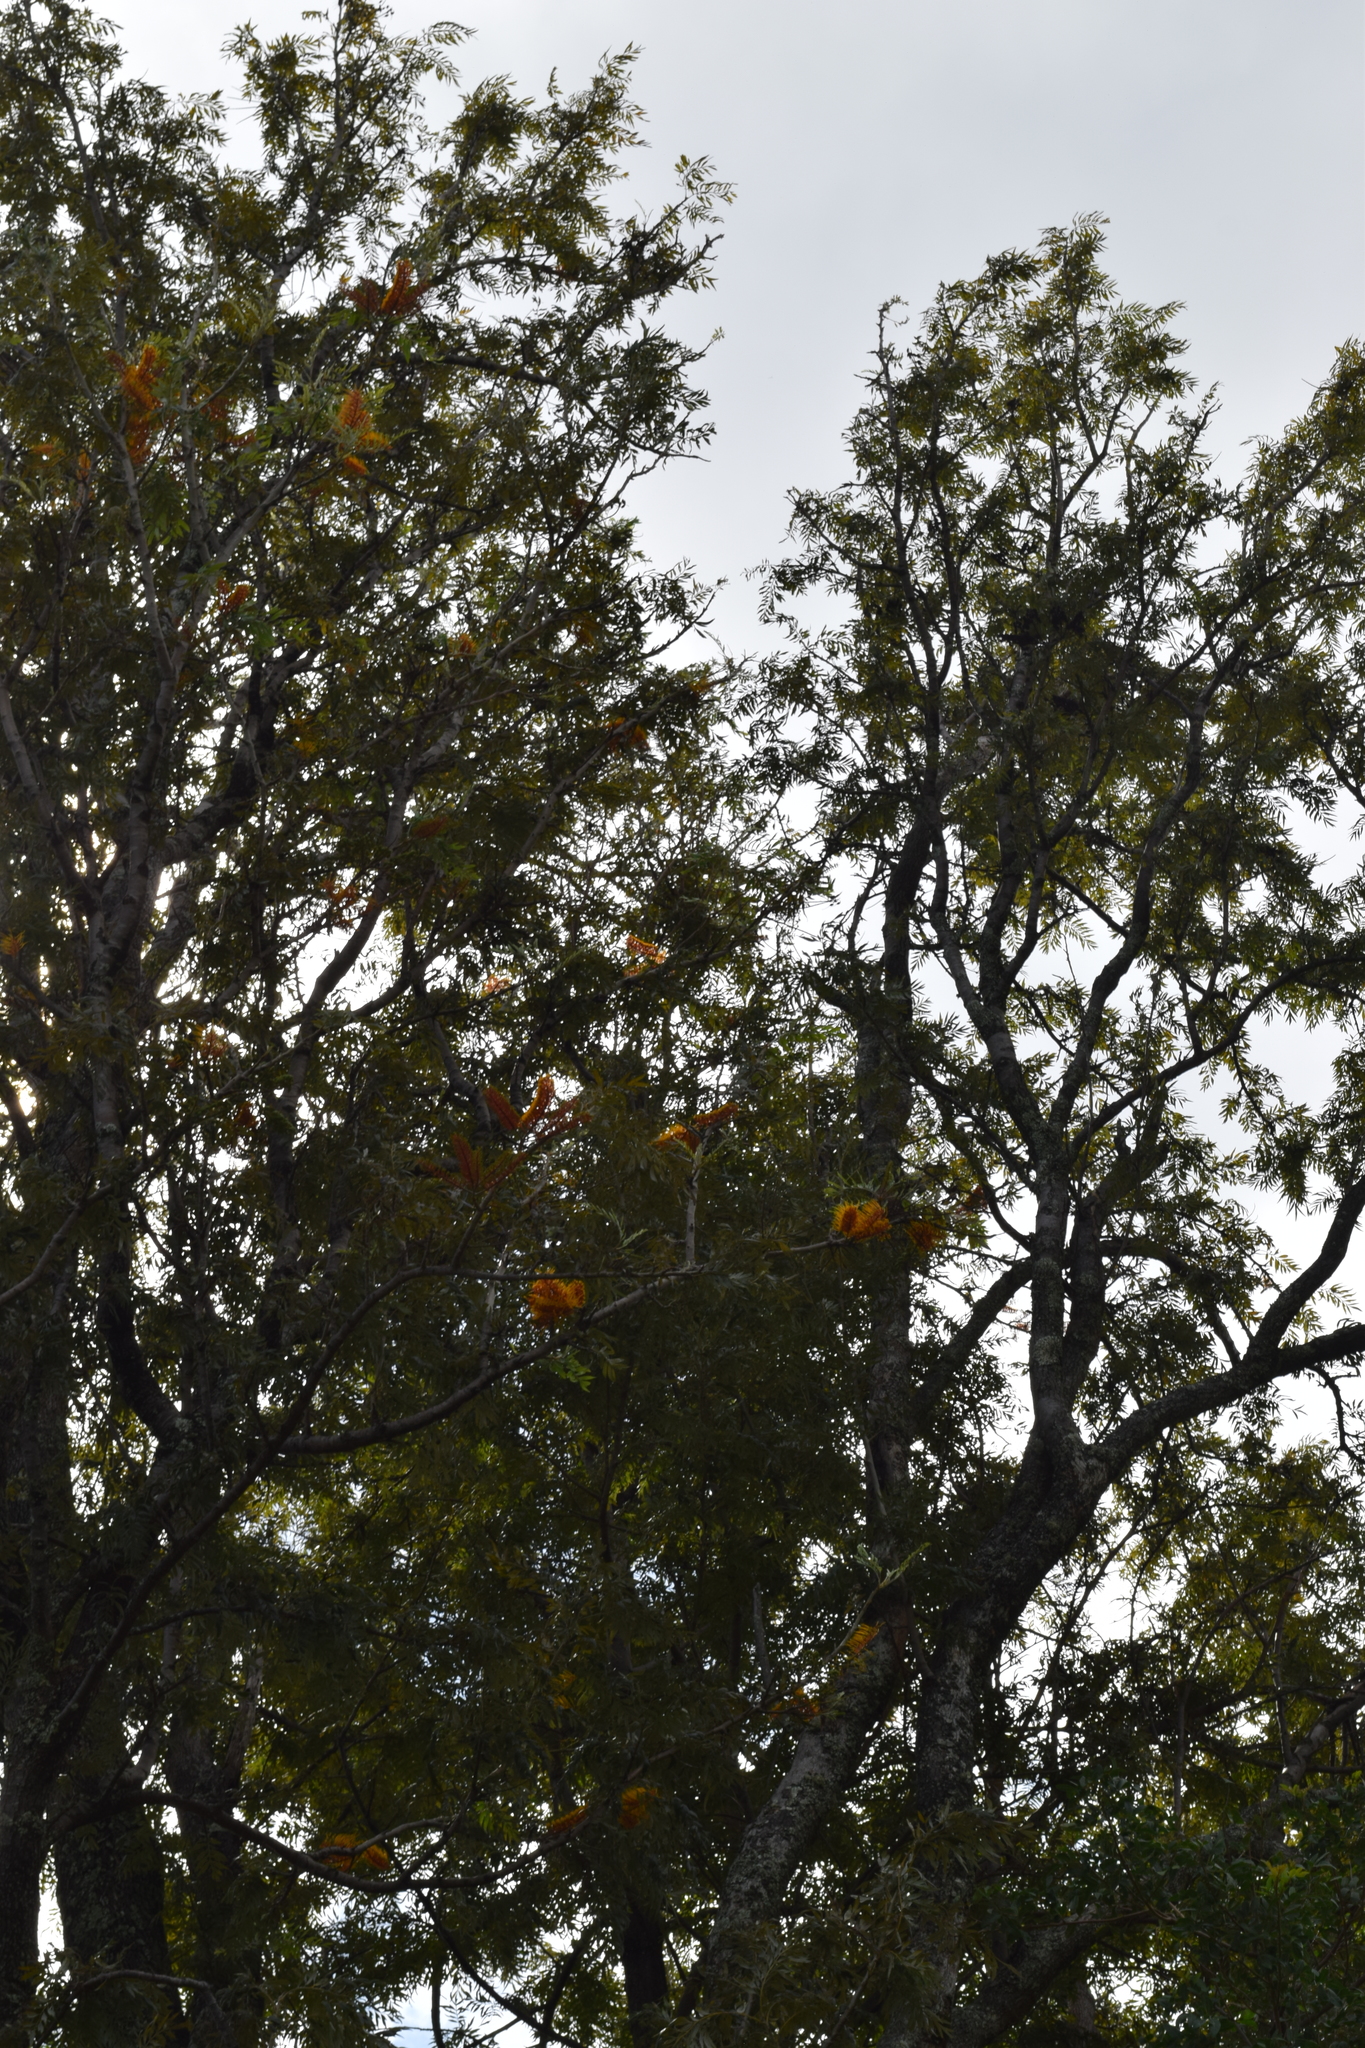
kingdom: Plantae
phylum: Tracheophyta
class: Magnoliopsida
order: Proteales
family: Proteaceae
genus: Grevillea
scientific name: Grevillea robusta
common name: Silkoak
